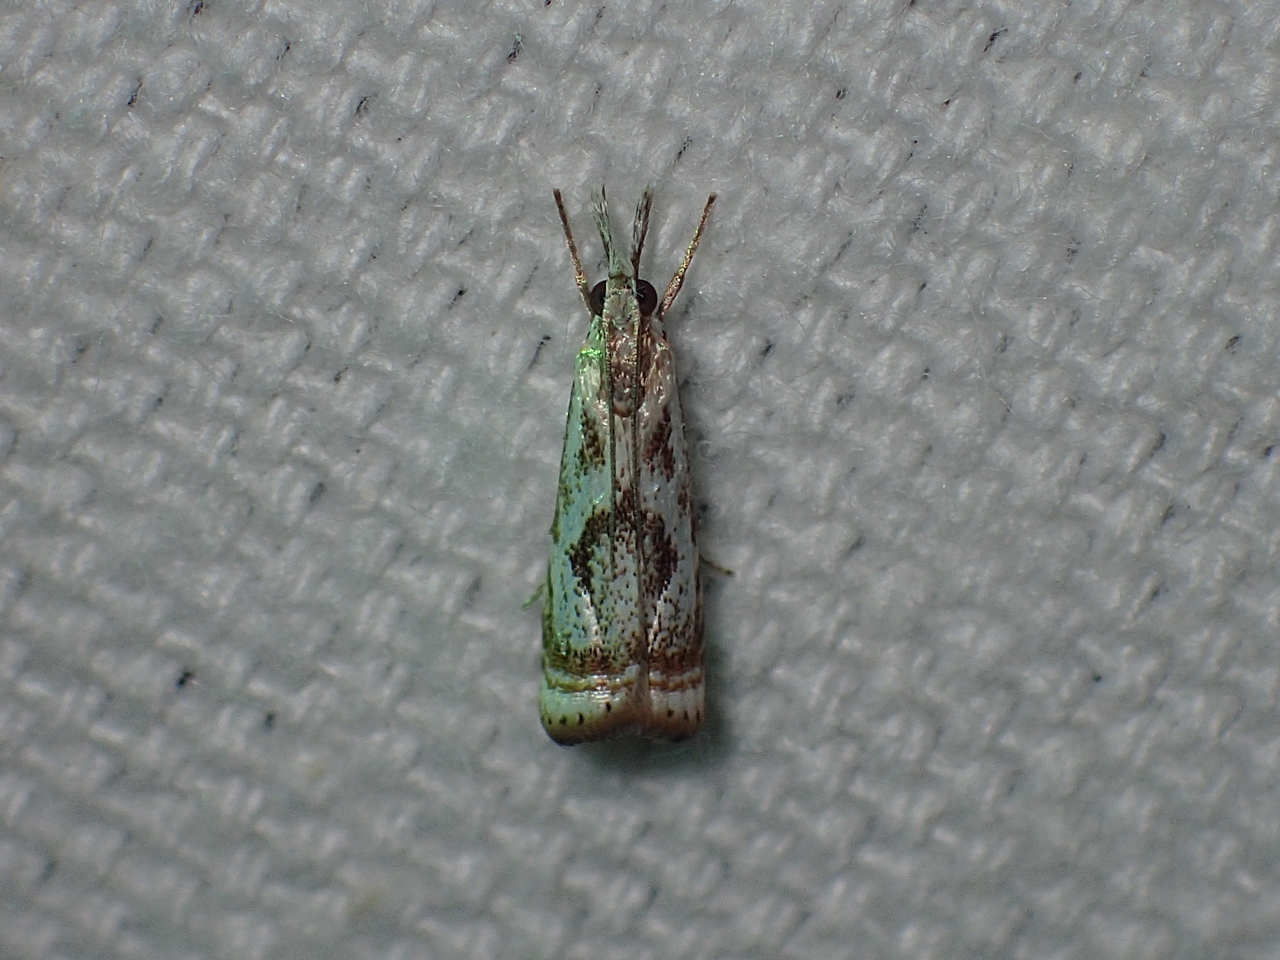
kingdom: Animalia
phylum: Arthropoda
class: Insecta
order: Lepidoptera
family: Crambidae
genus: Microcrambus
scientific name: Microcrambus elegans
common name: Elegant grass-veneer
